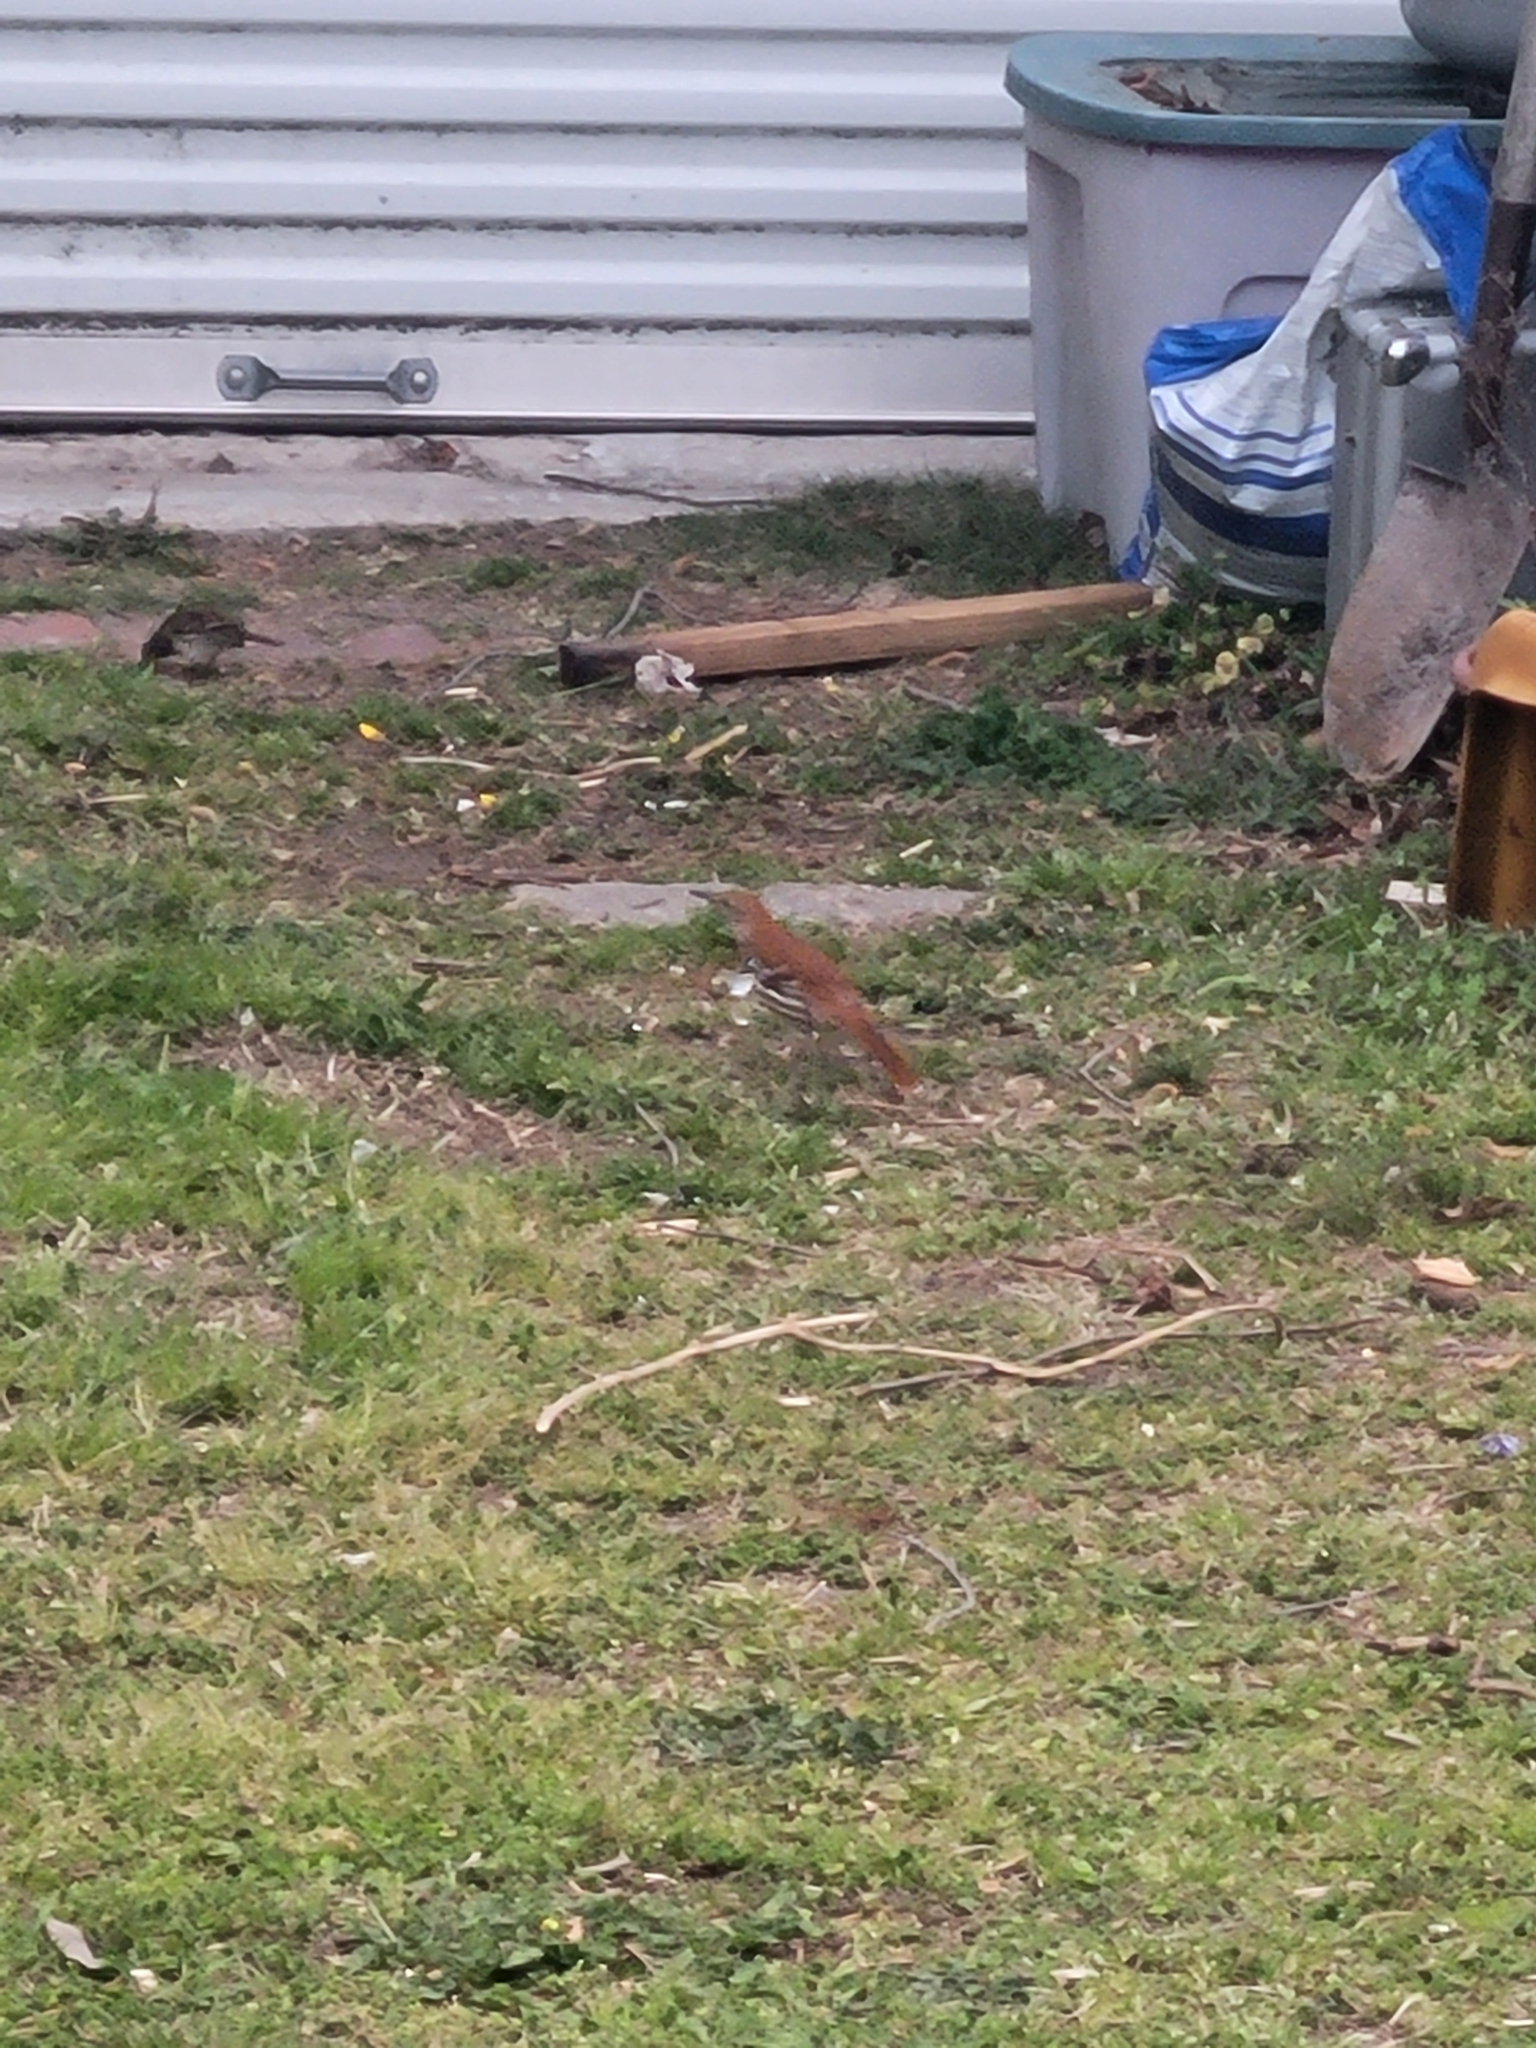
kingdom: Animalia
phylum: Chordata
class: Aves
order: Passeriformes
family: Mimidae
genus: Toxostoma
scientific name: Toxostoma rufum
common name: Brown thrasher
